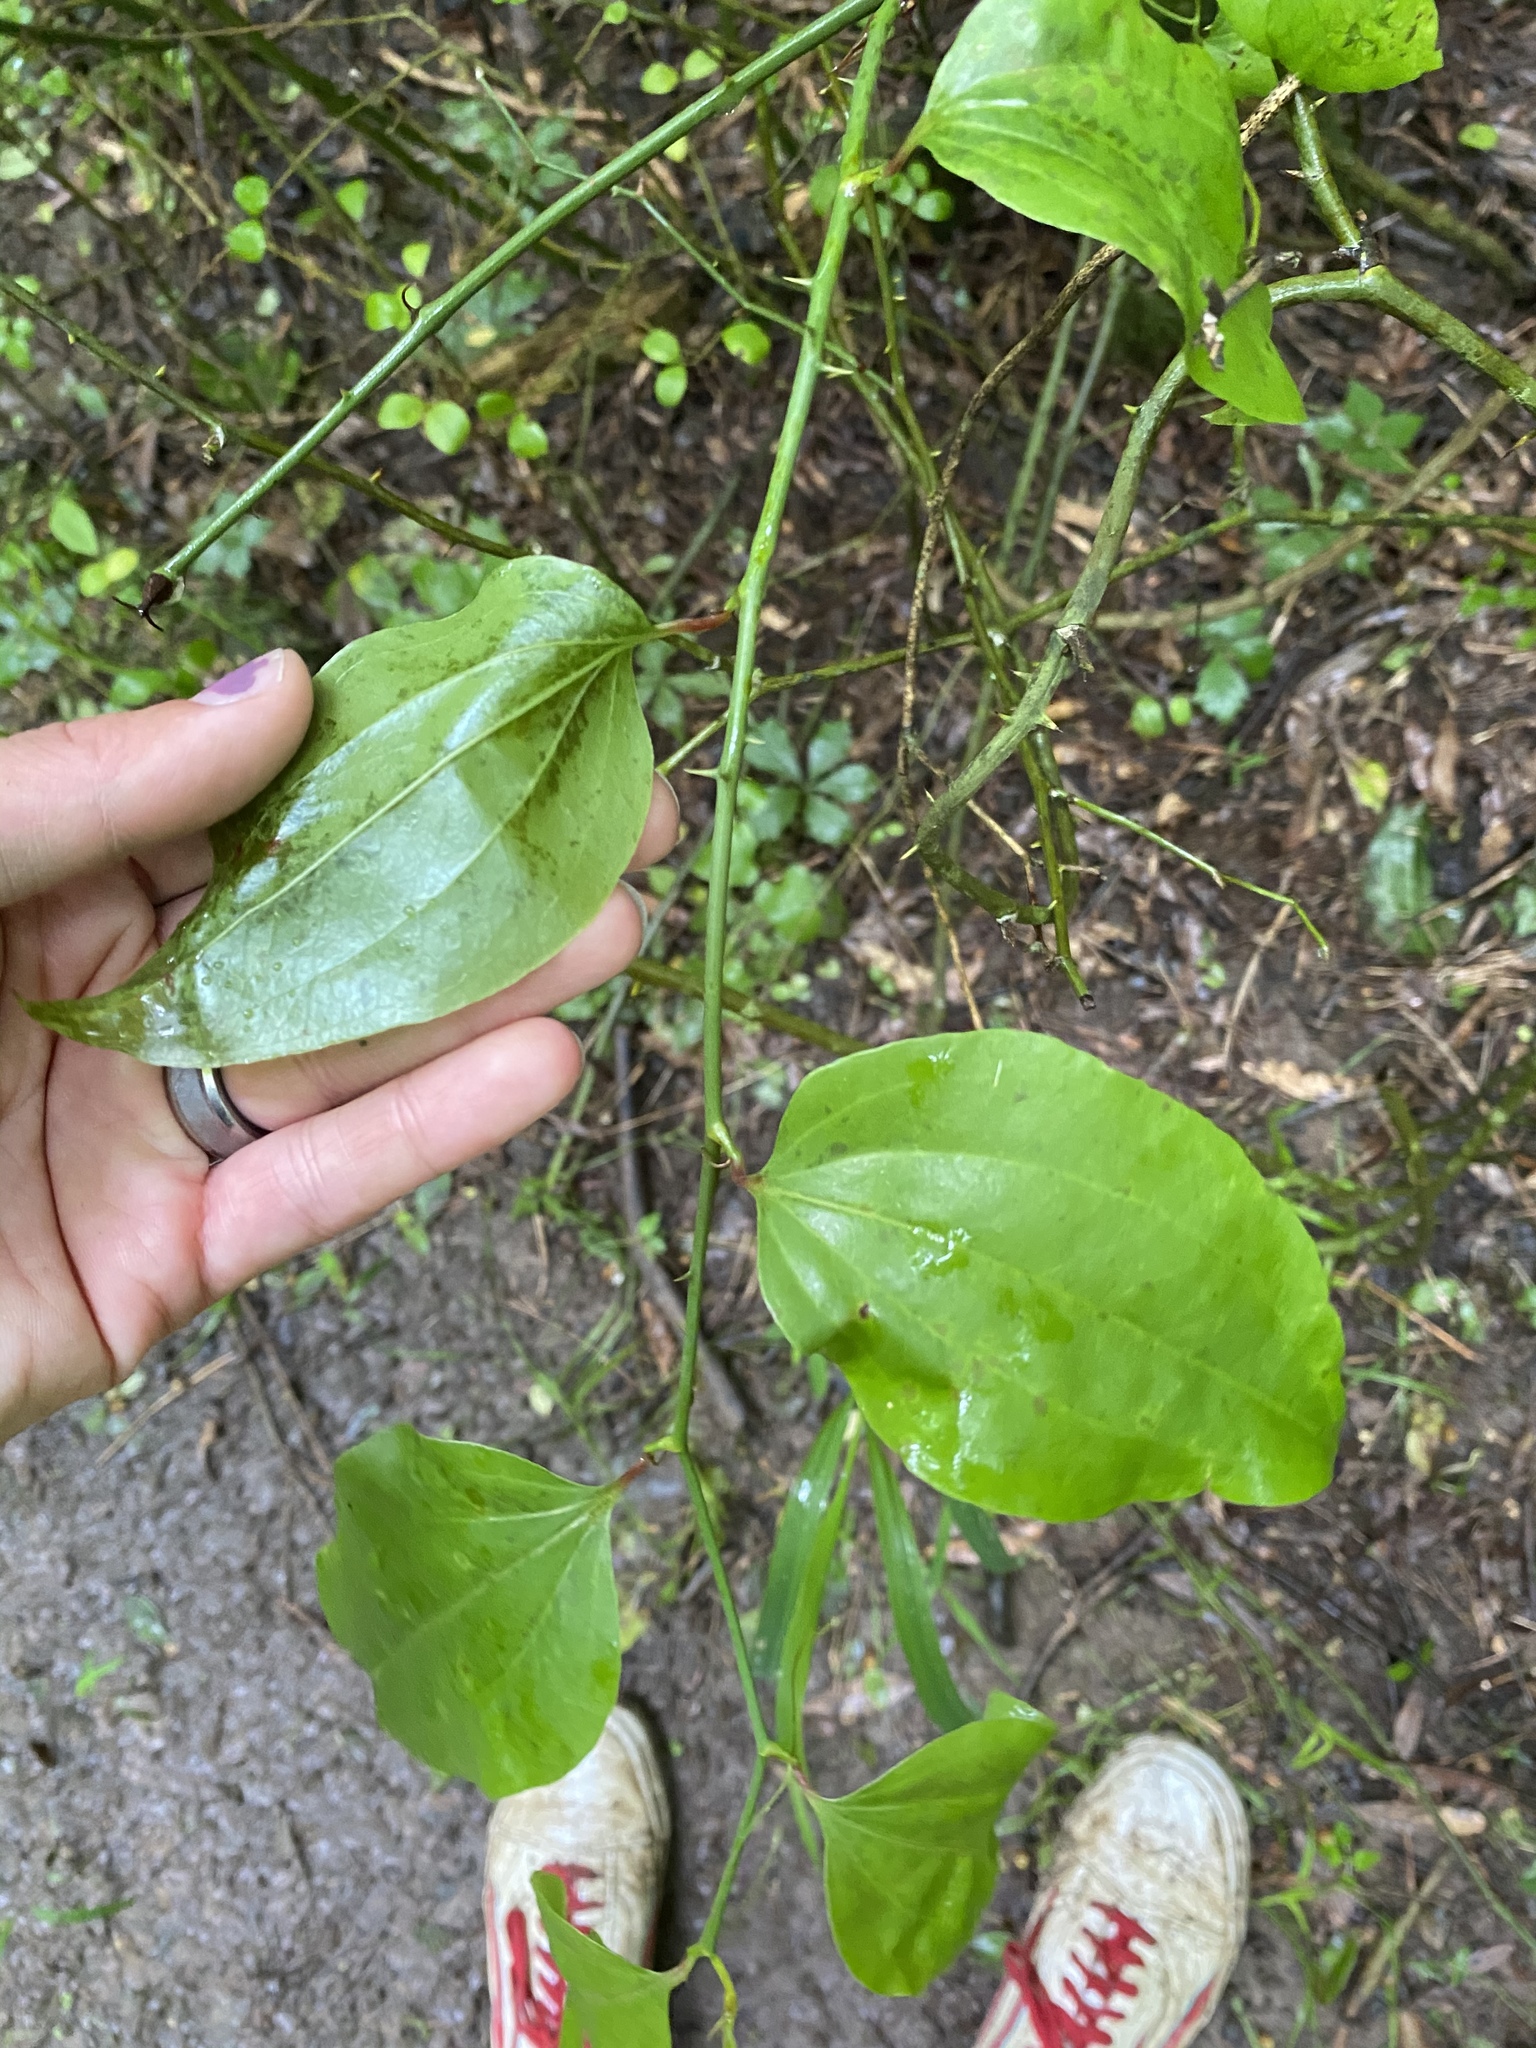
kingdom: Plantae
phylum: Tracheophyta
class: Liliopsida
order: Liliales
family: Smilacaceae
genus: Smilax
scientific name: Smilax rotundifolia
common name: Bullbriar
